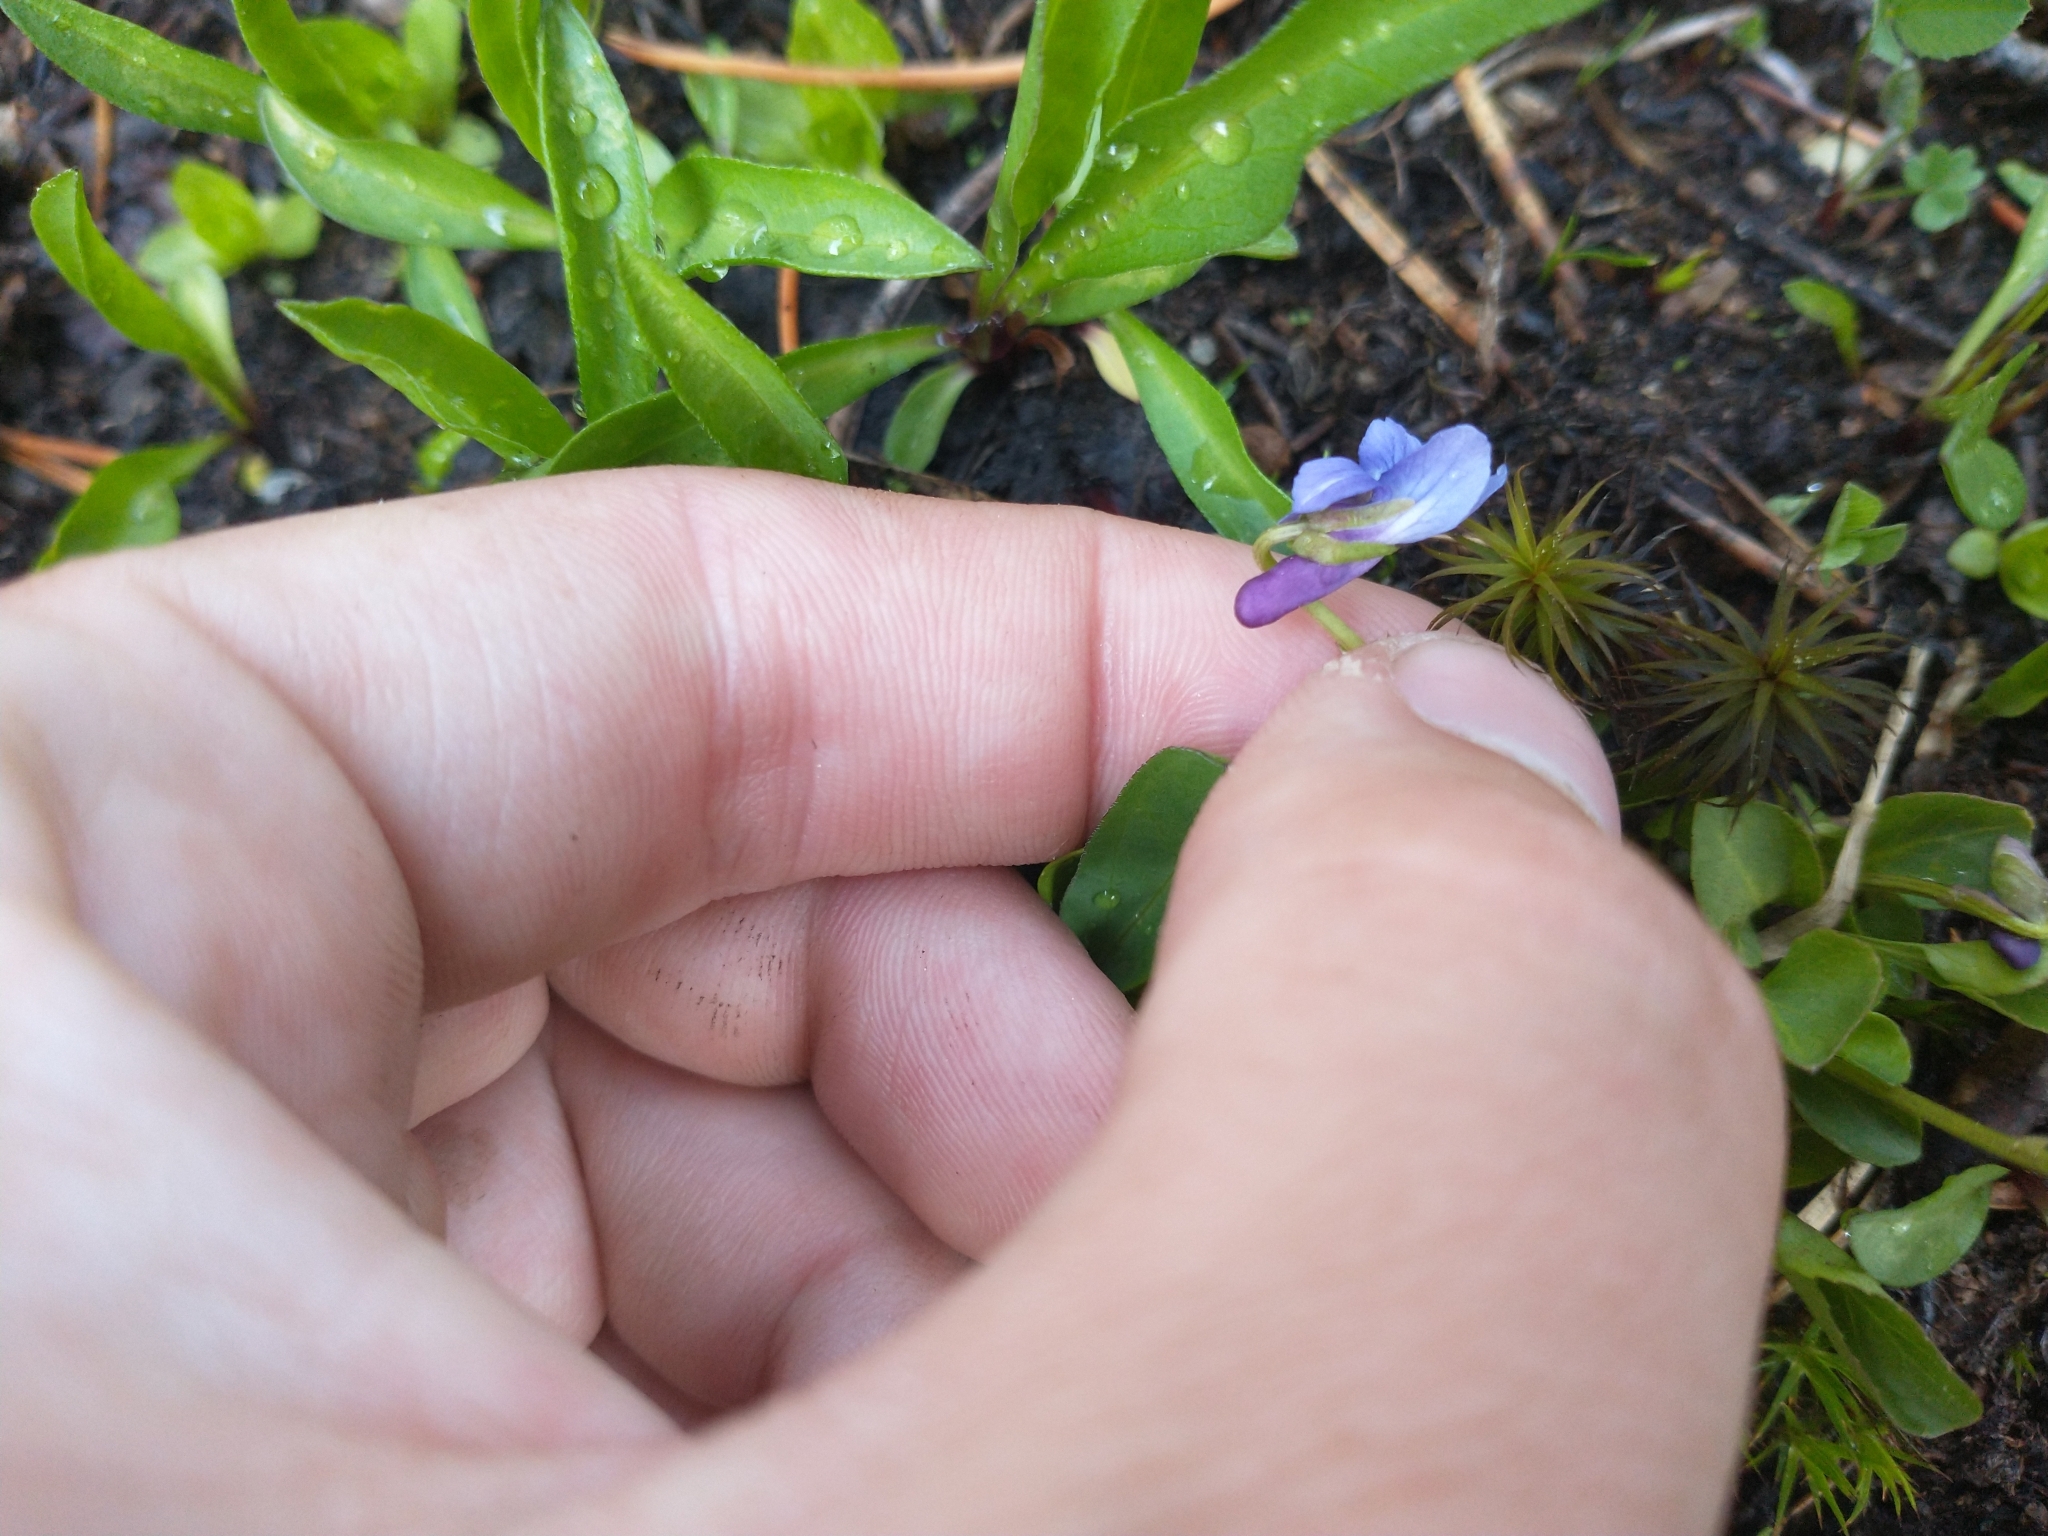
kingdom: Plantae
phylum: Tracheophyta
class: Magnoliopsida
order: Malpighiales
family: Violaceae
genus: Viola
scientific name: Viola adunca
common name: Sand violet
